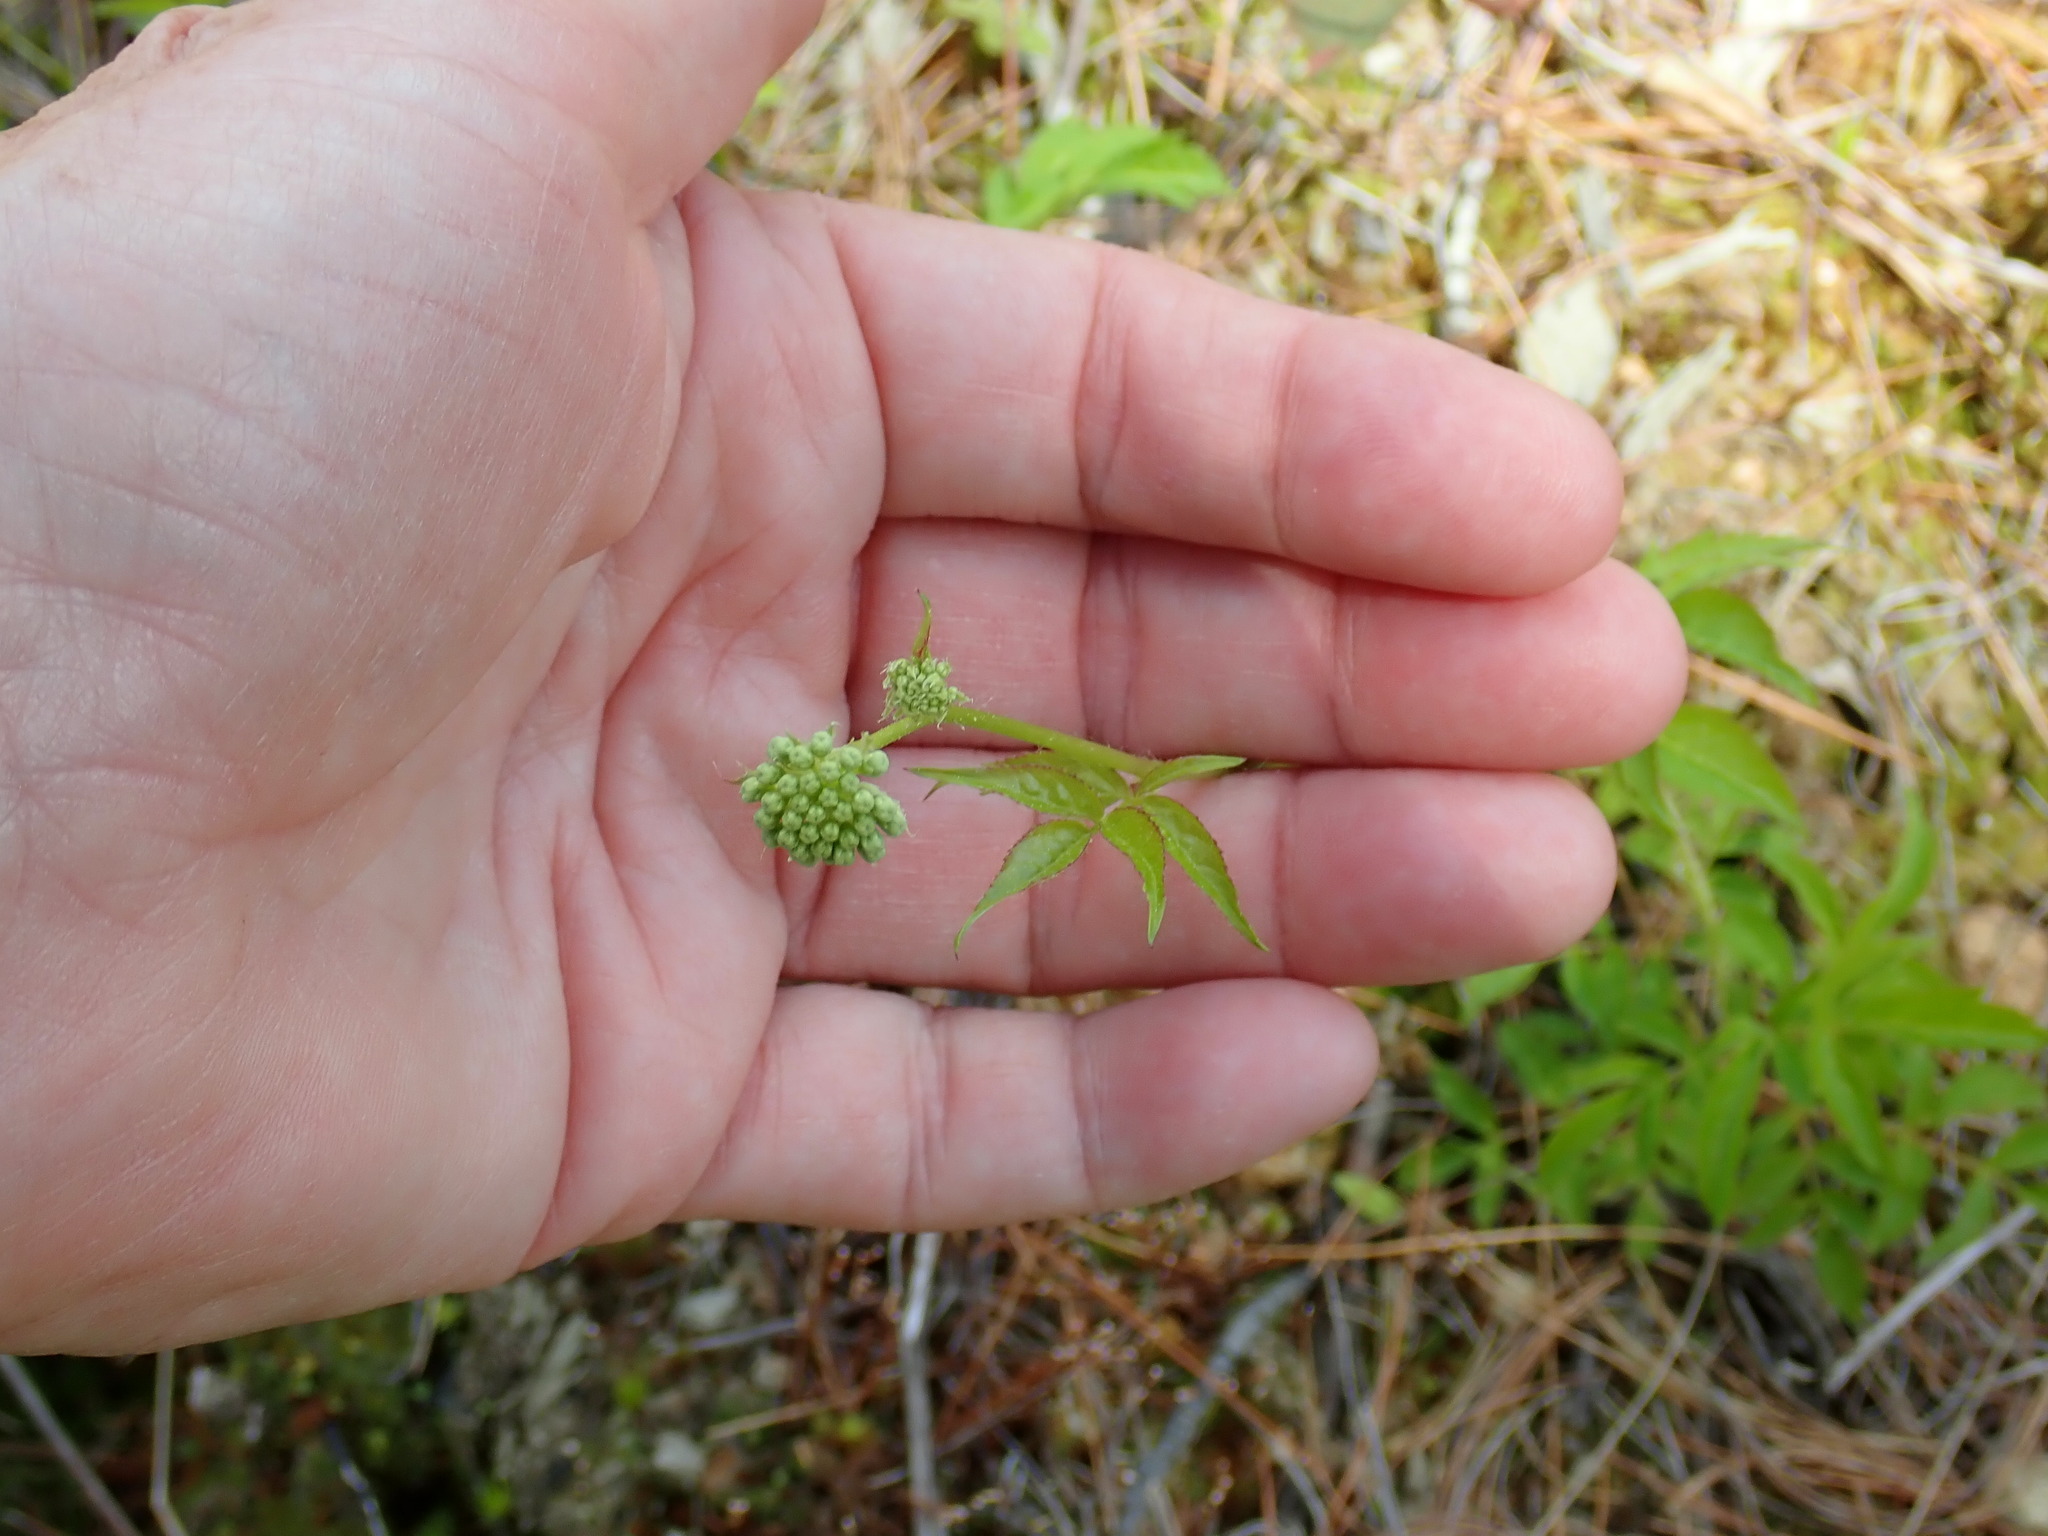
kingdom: Plantae
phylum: Tracheophyta
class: Magnoliopsida
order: Apiales
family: Araliaceae
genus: Aralia
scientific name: Aralia hispida
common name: Bristly sarsaparilla
